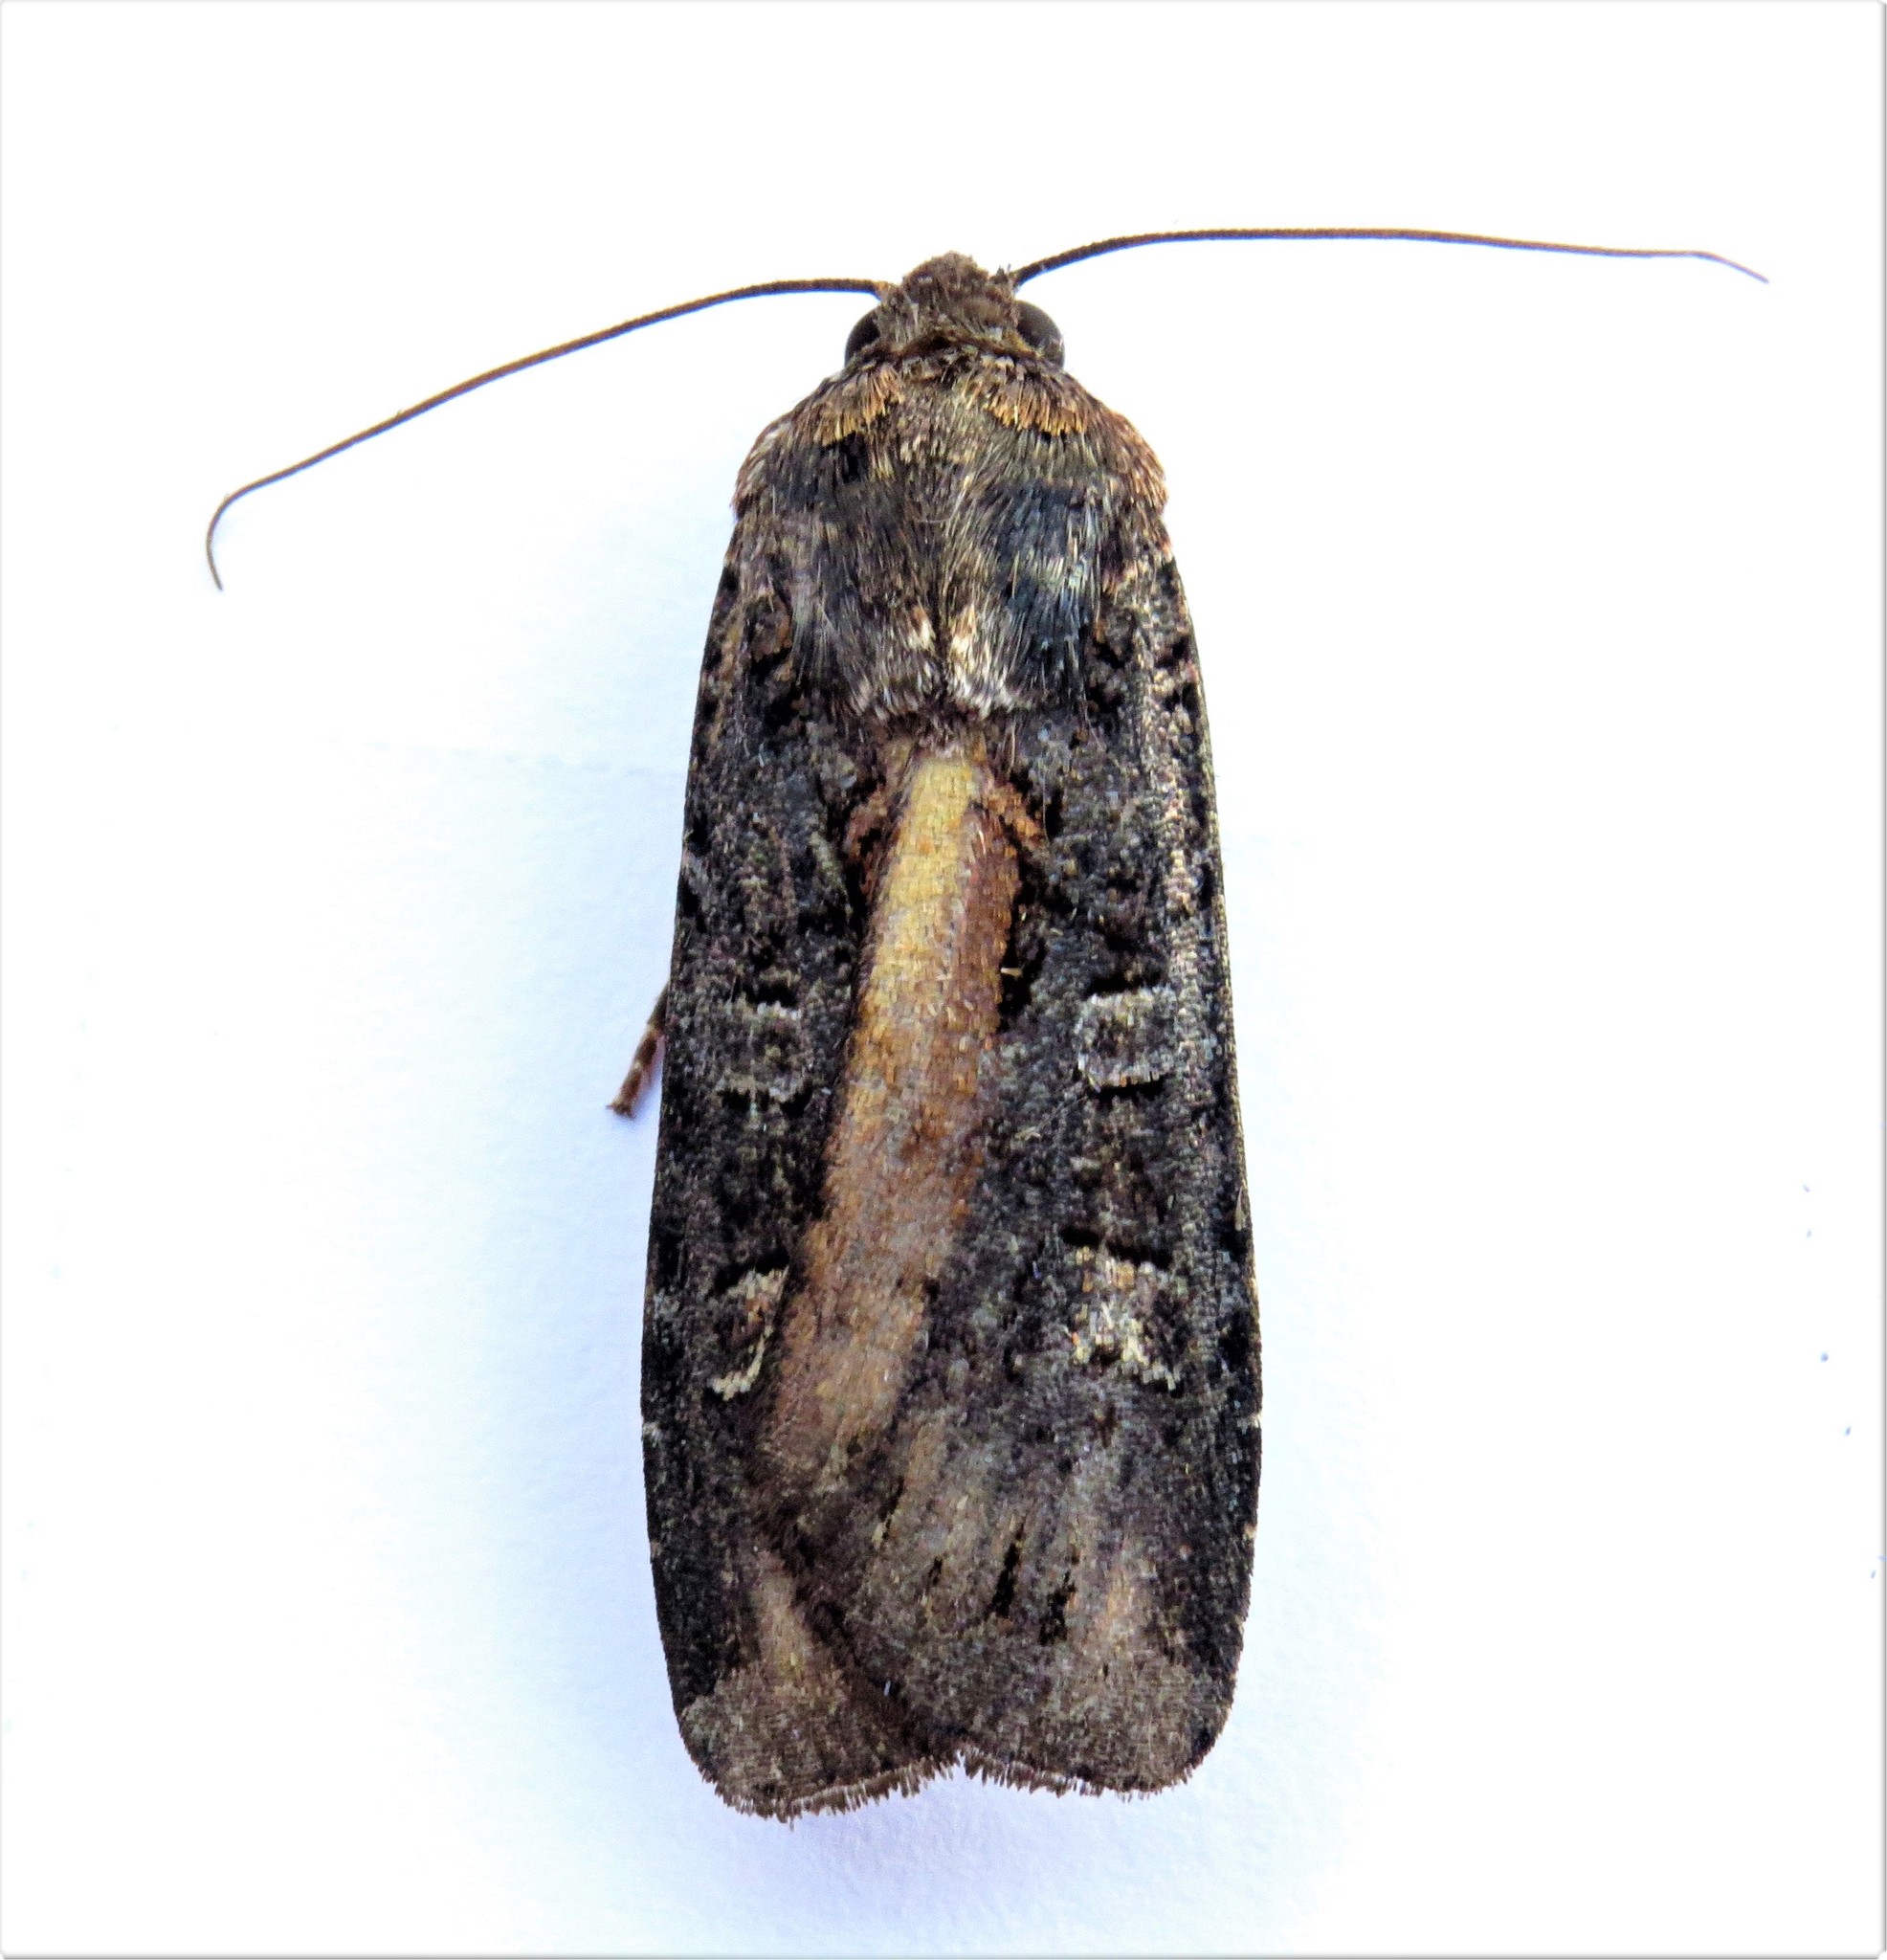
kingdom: Animalia
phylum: Arthropoda
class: Insecta
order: Lepidoptera
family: Noctuidae
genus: Actebia
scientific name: Actebia fennica
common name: Eversmann's rustic
